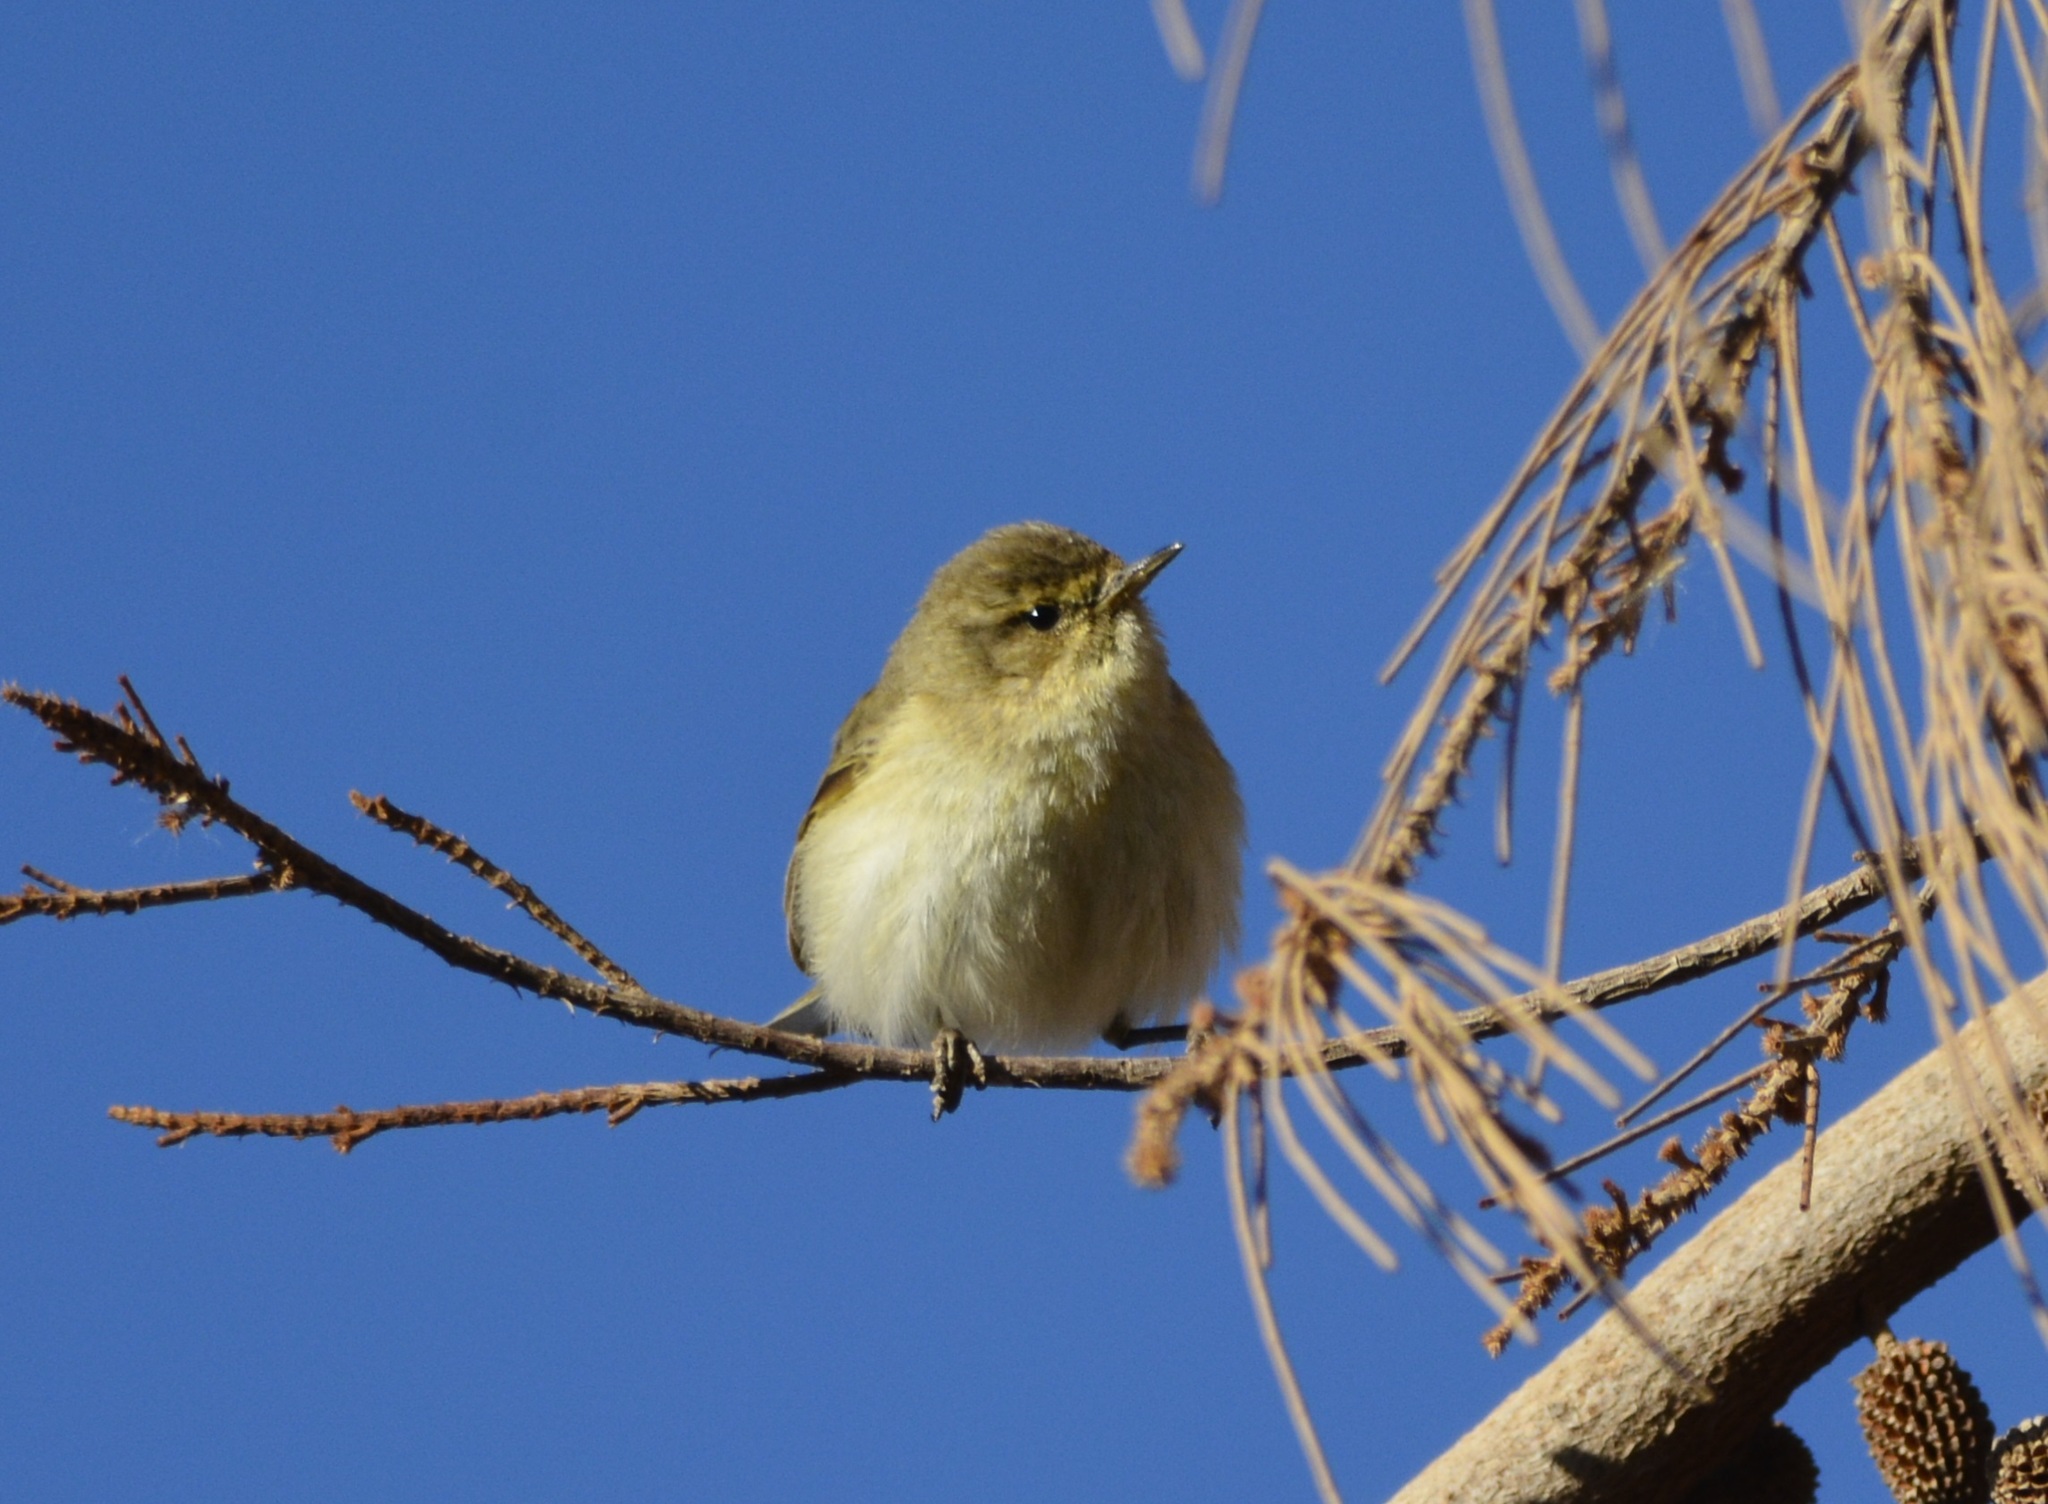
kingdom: Animalia
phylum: Chordata
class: Aves
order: Passeriformes
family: Phylloscopidae
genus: Phylloscopus
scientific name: Phylloscopus collybita
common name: Common chiffchaff
